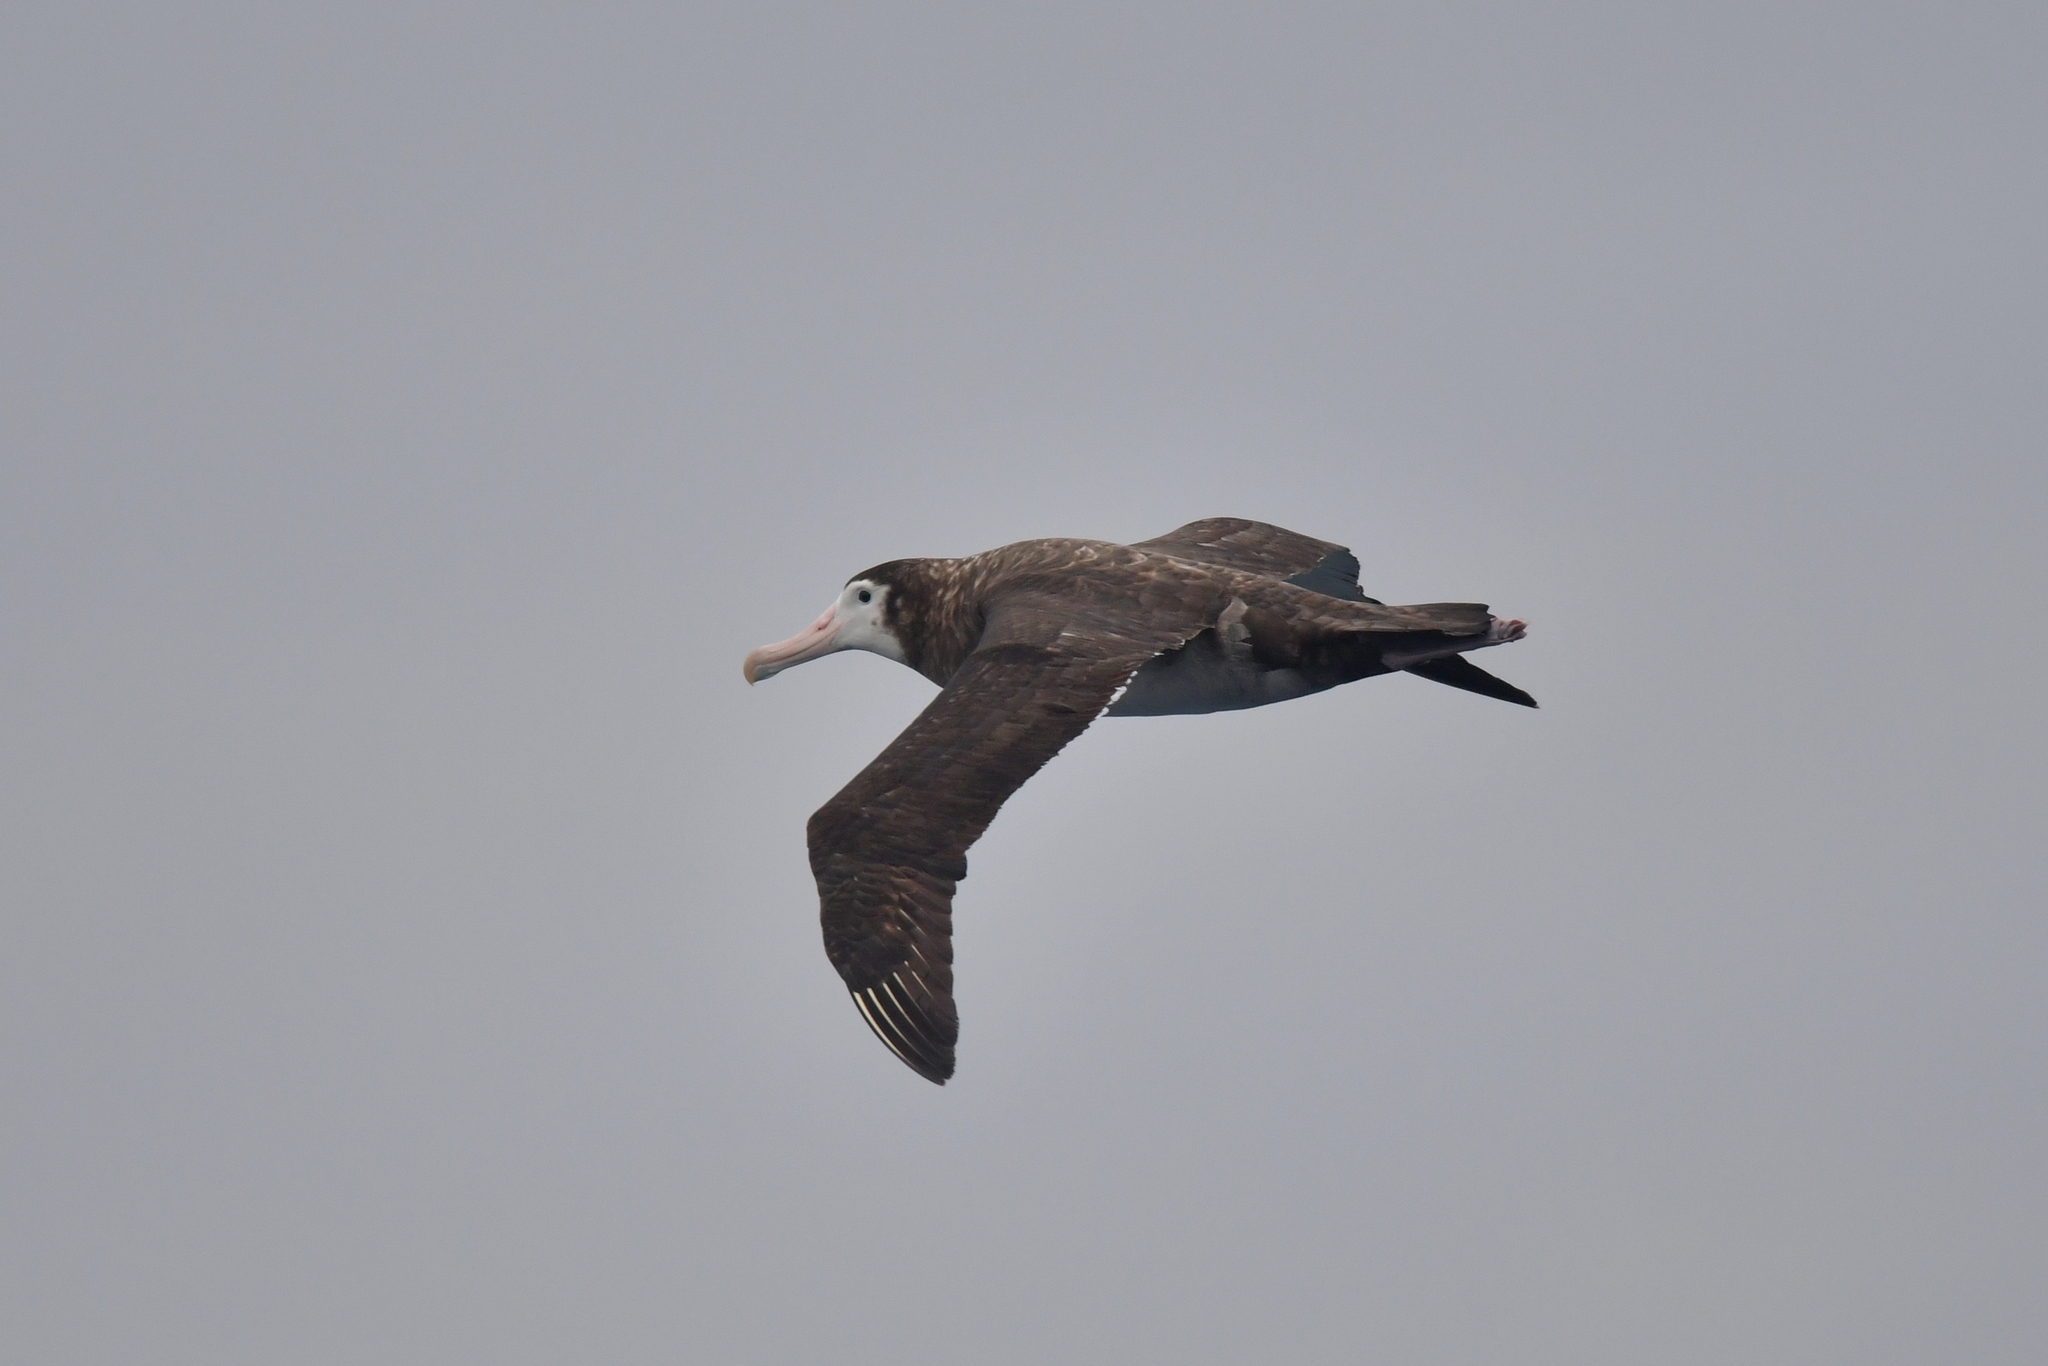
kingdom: Animalia
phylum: Chordata
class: Aves
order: Procellariiformes
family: Diomedeidae
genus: Diomedea
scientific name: Diomedea antipodensis
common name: Antipodean albatross
